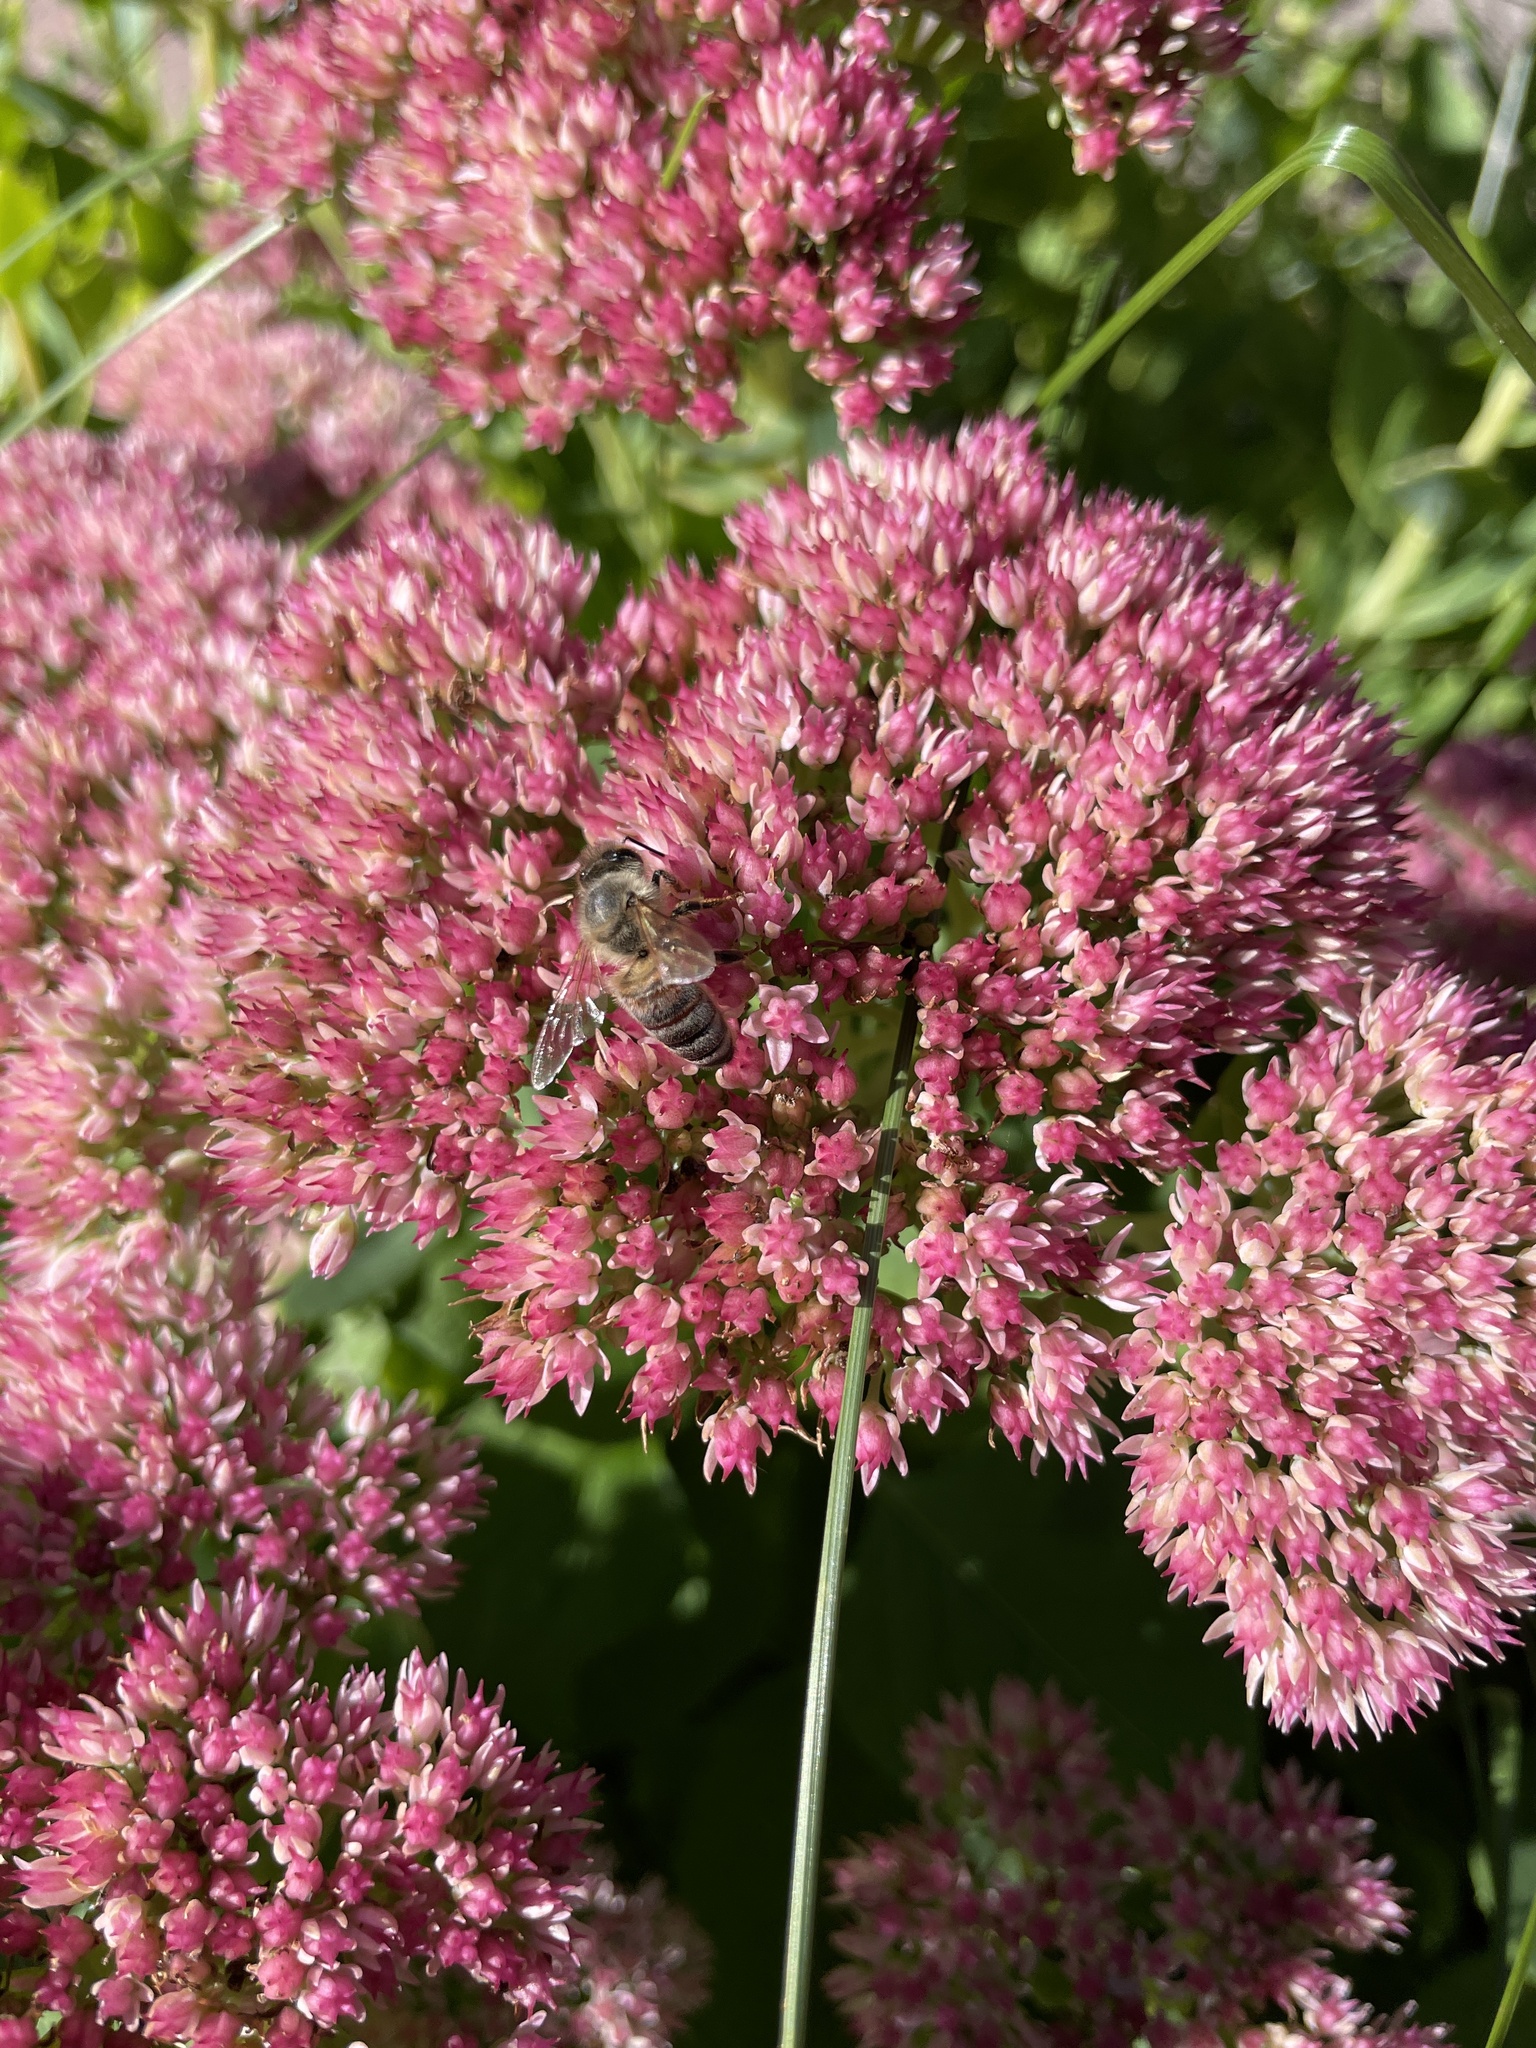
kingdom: Animalia
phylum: Arthropoda
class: Insecta
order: Hymenoptera
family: Apidae
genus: Apis
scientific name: Apis mellifera
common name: Honey bee
